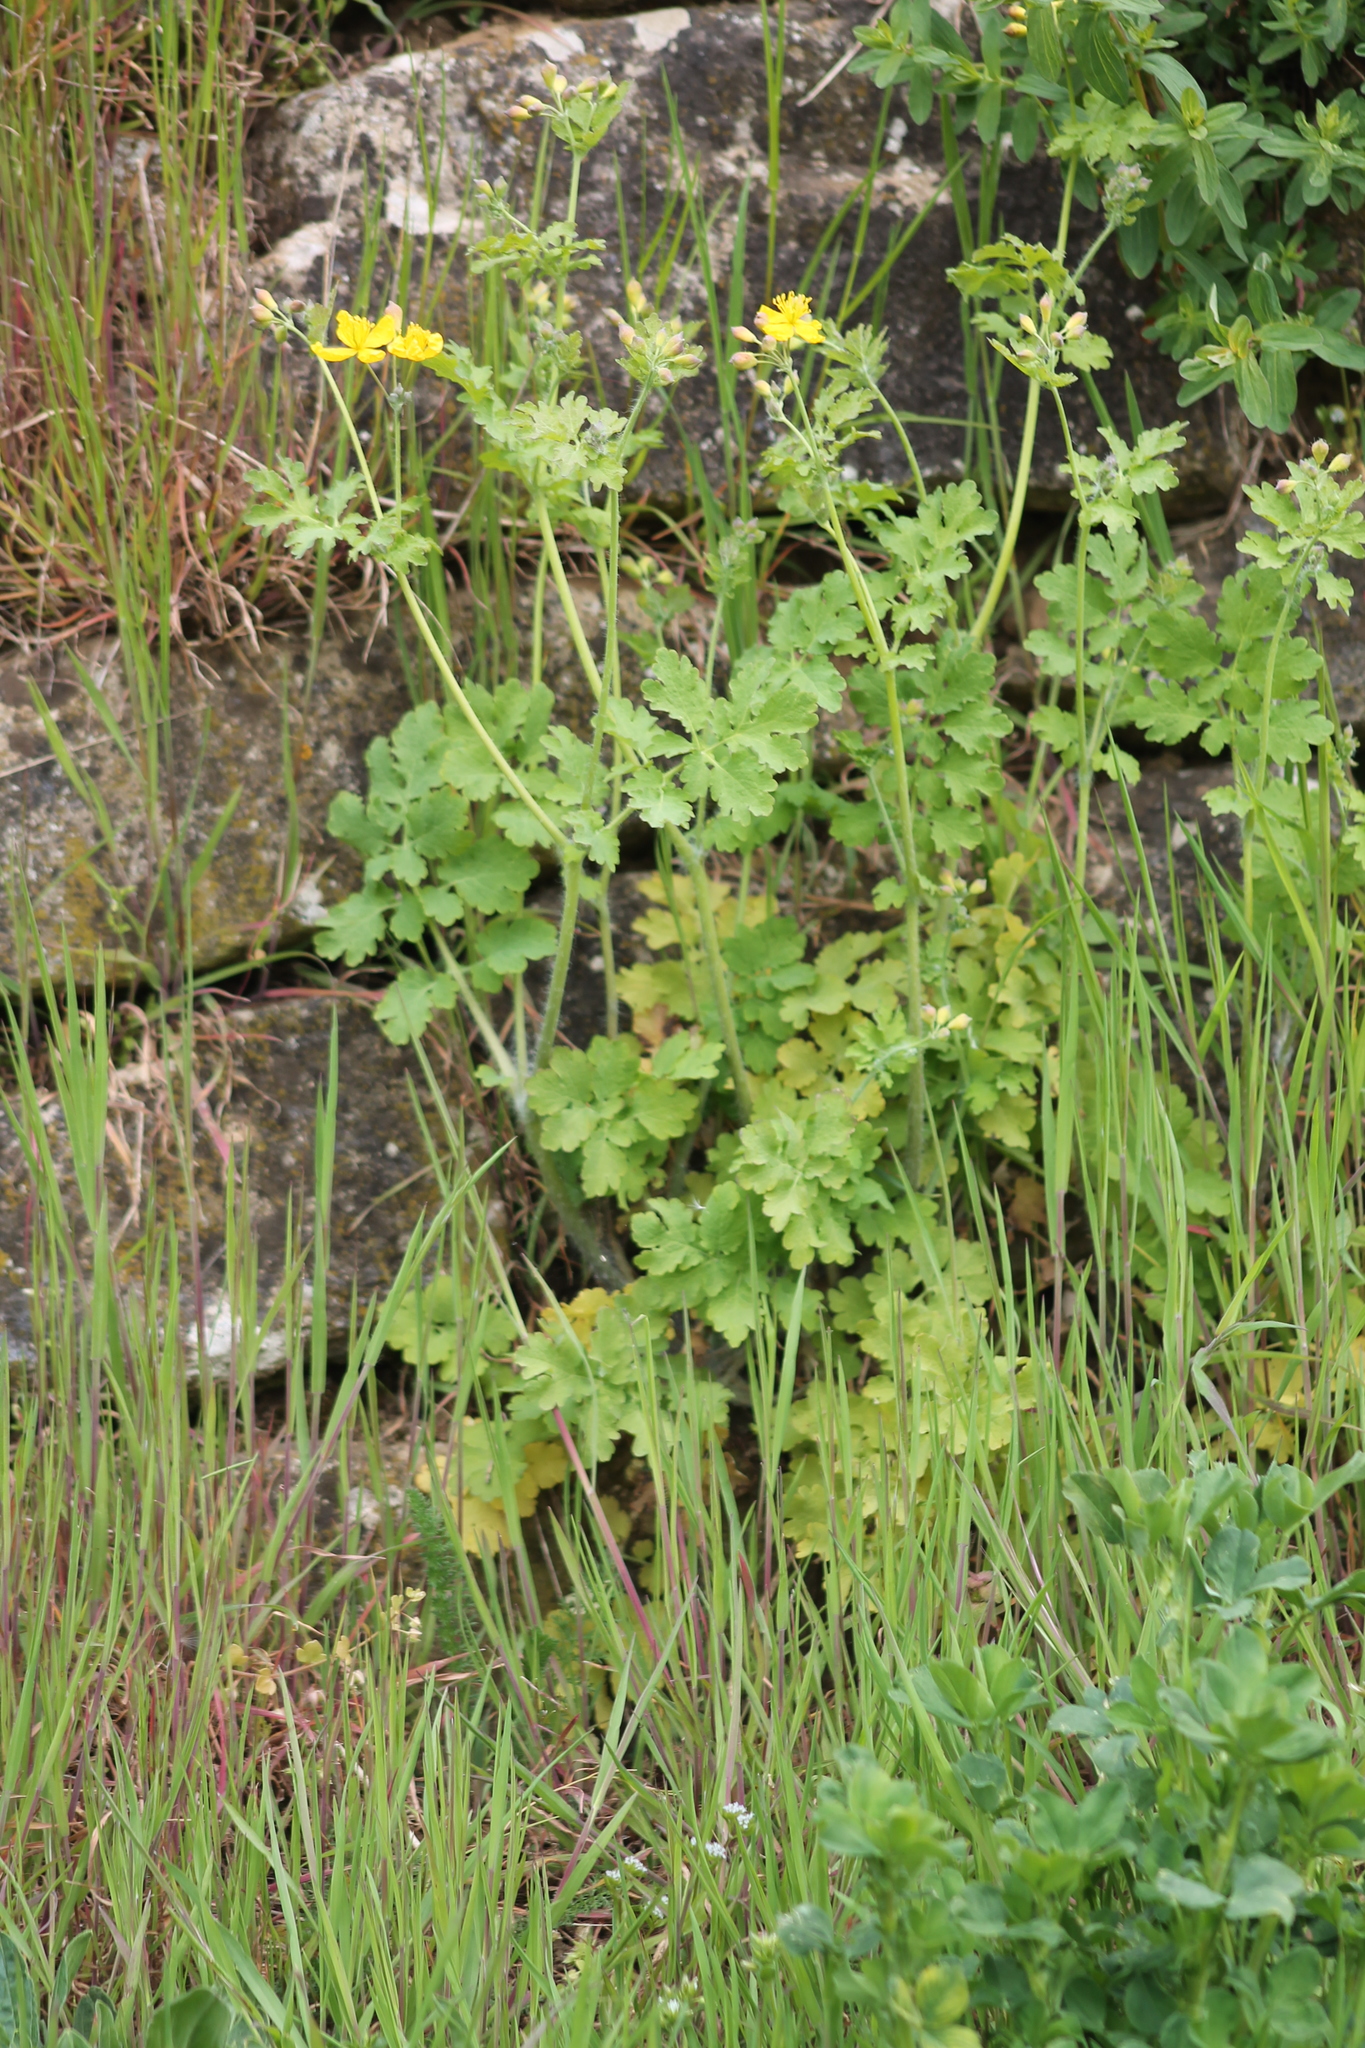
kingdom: Plantae
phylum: Tracheophyta
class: Magnoliopsida
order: Ranunculales
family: Papaveraceae
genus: Chelidonium
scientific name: Chelidonium majus
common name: Greater celandine
